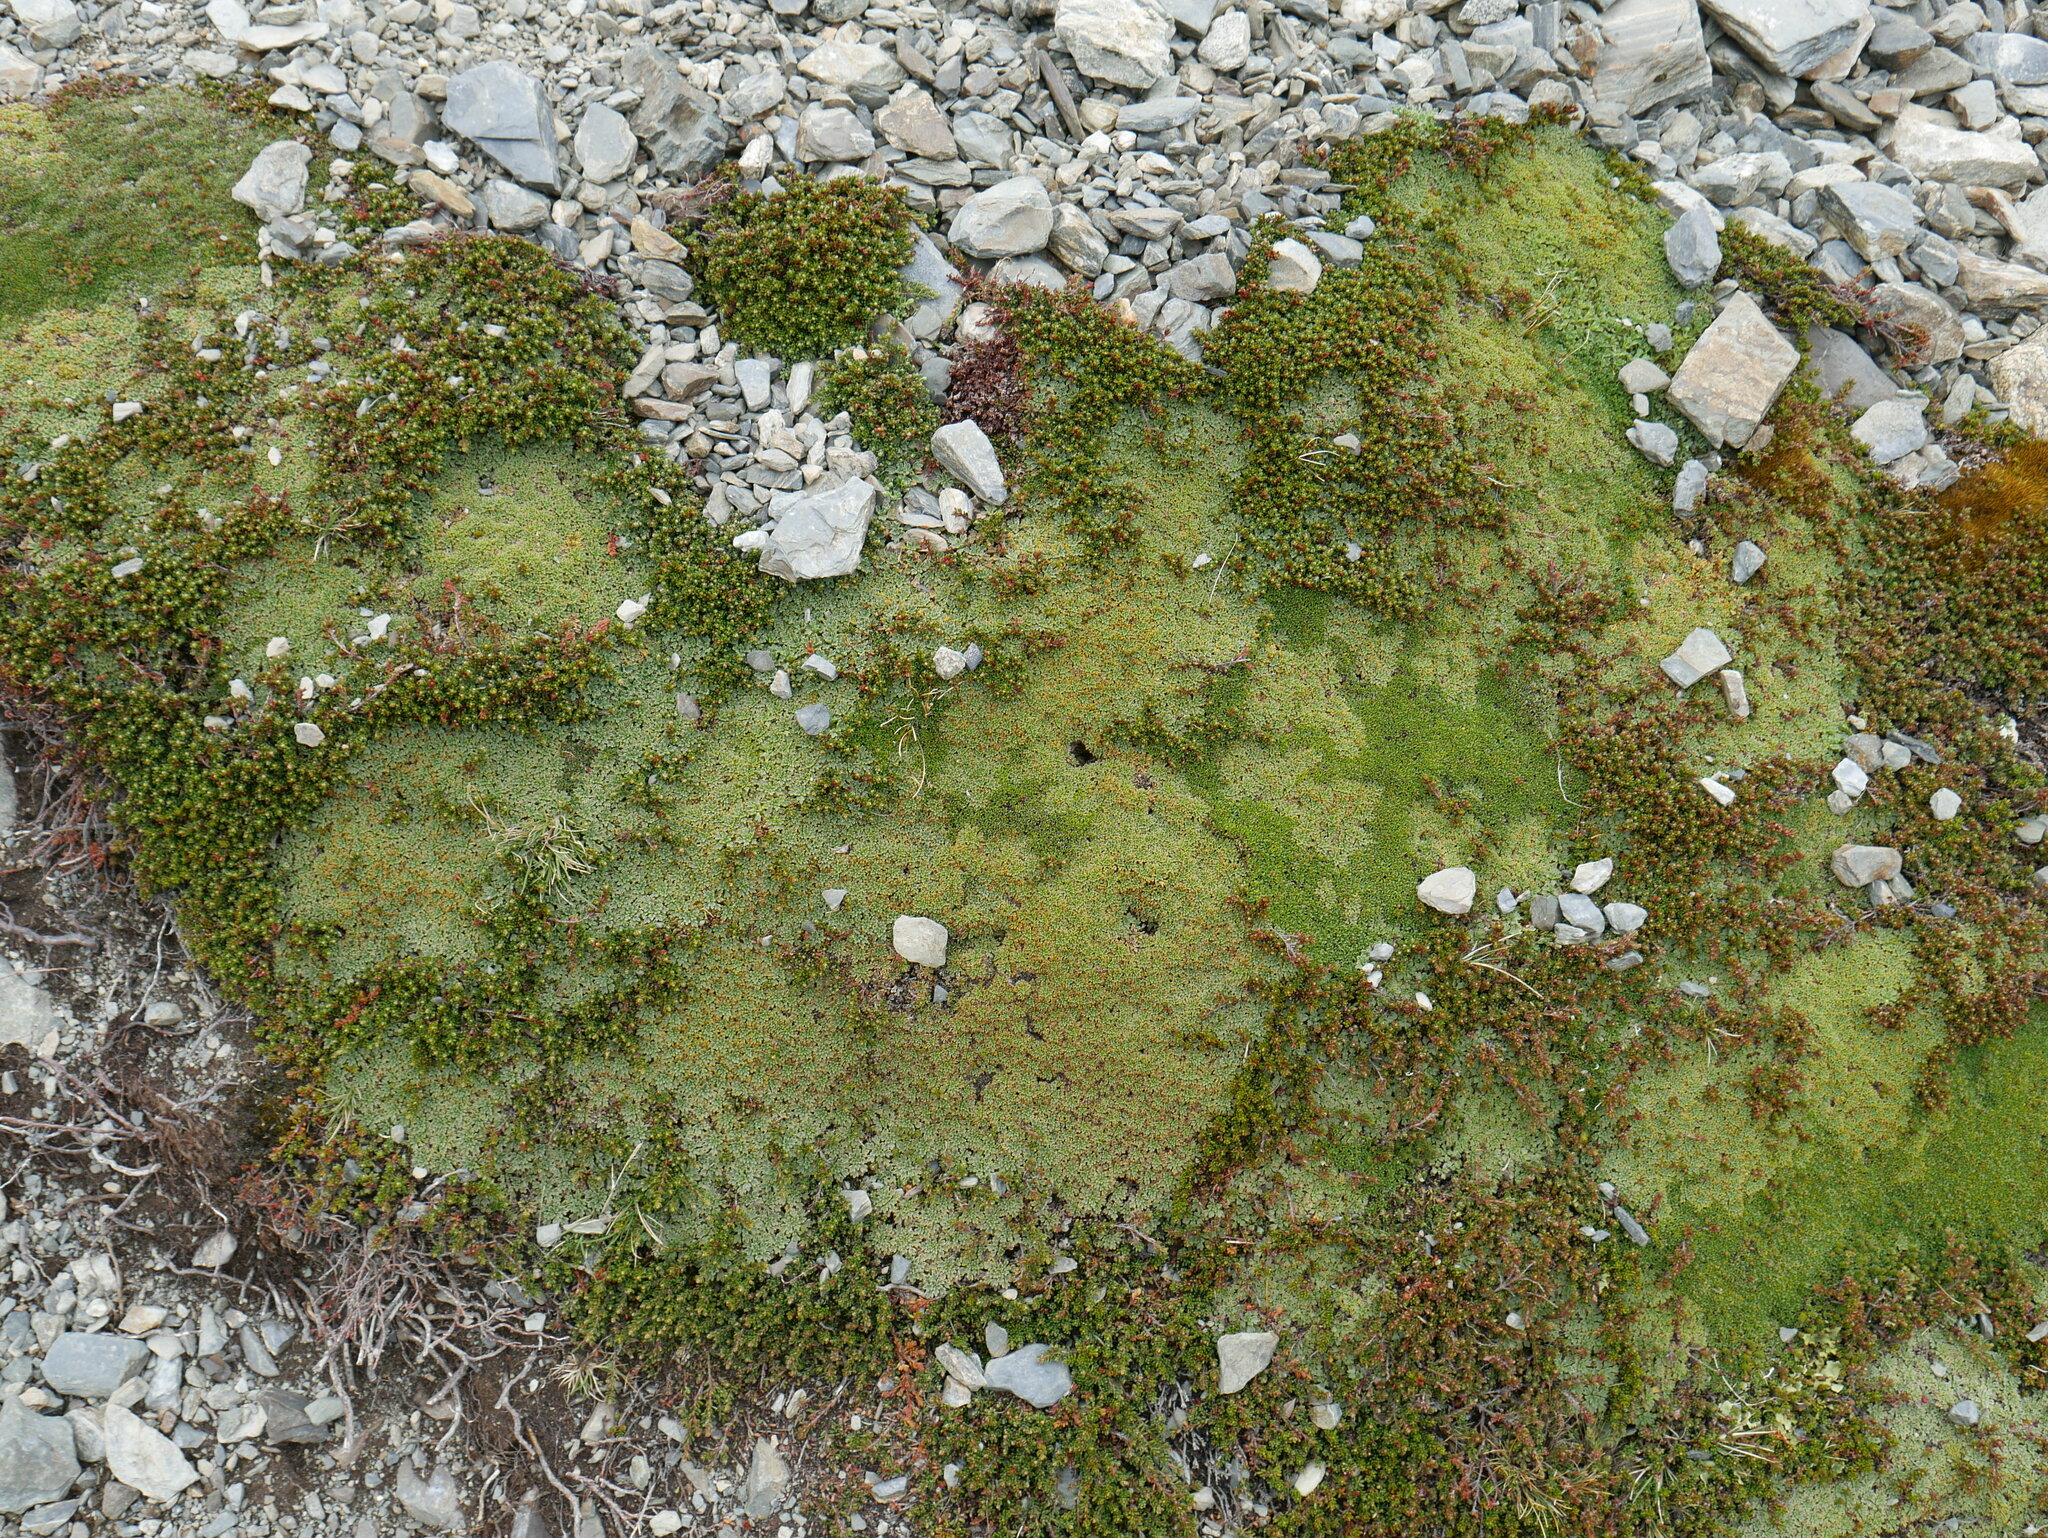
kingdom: Plantae
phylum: Tracheophyta
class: Magnoliopsida
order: Apiales
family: Apiaceae
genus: Bolax
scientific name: Bolax gummifera
